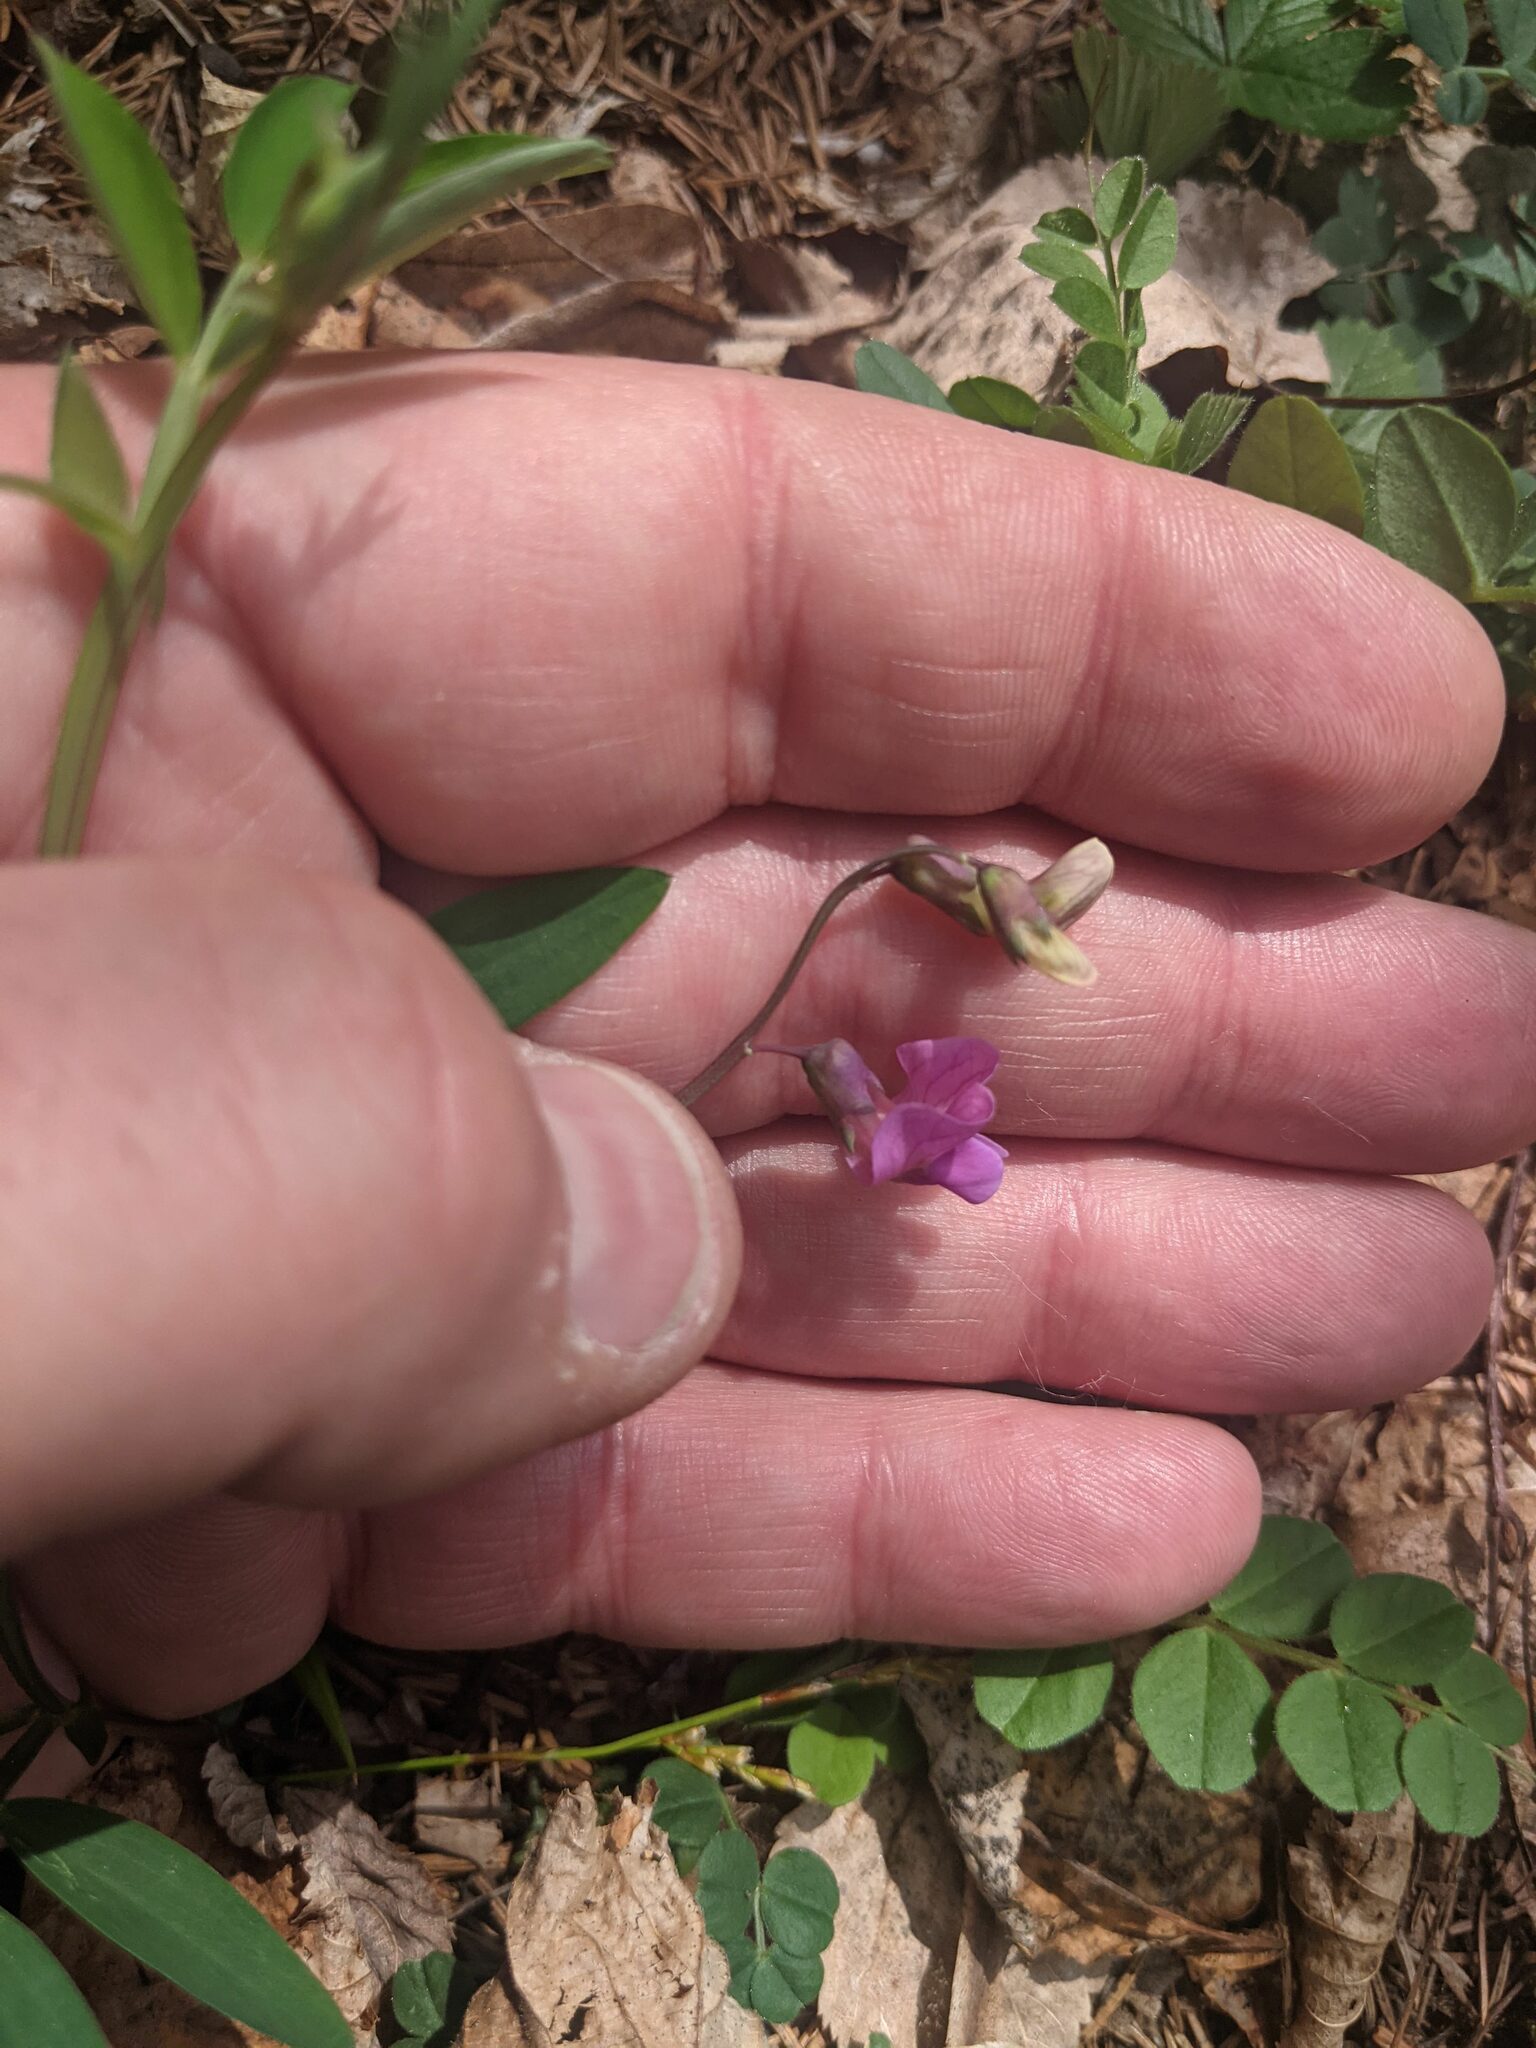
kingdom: Plantae
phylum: Tracheophyta
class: Magnoliopsida
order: Fabales
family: Fabaceae
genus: Lathyrus
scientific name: Lathyrus linifolius
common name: Bitter-vetch
